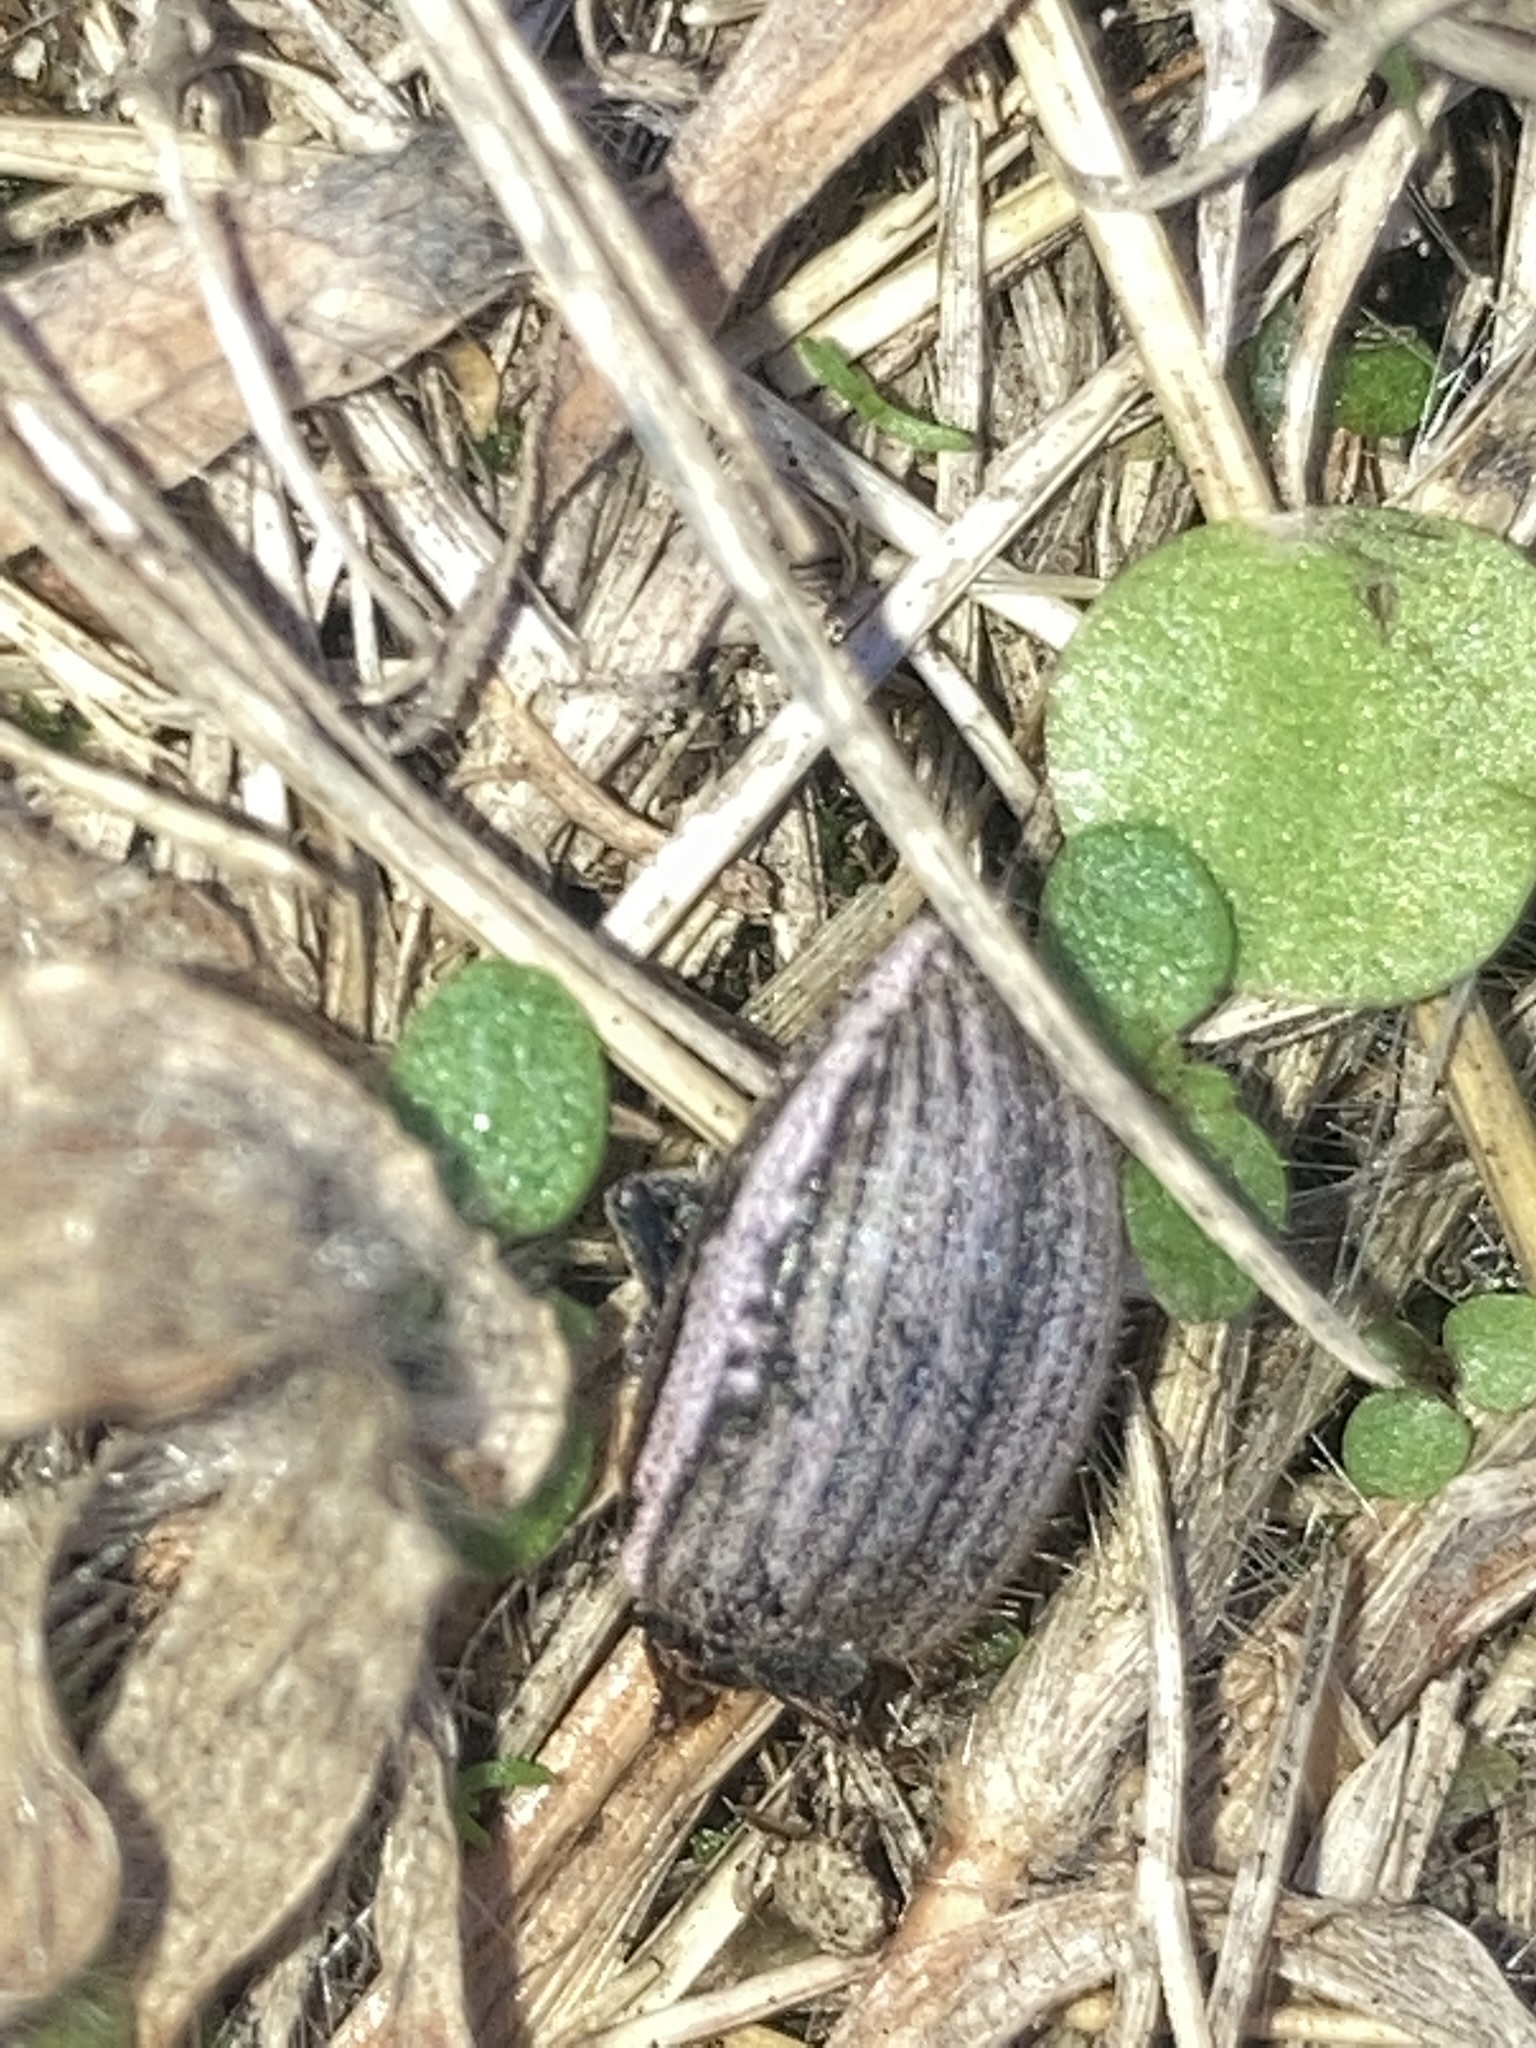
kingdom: Animalia
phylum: Arthropoda
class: Insecta
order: Coleoptera
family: Curculionidae
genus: Naupactus
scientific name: Naupactus leucoloma
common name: Whitefringed beetle
